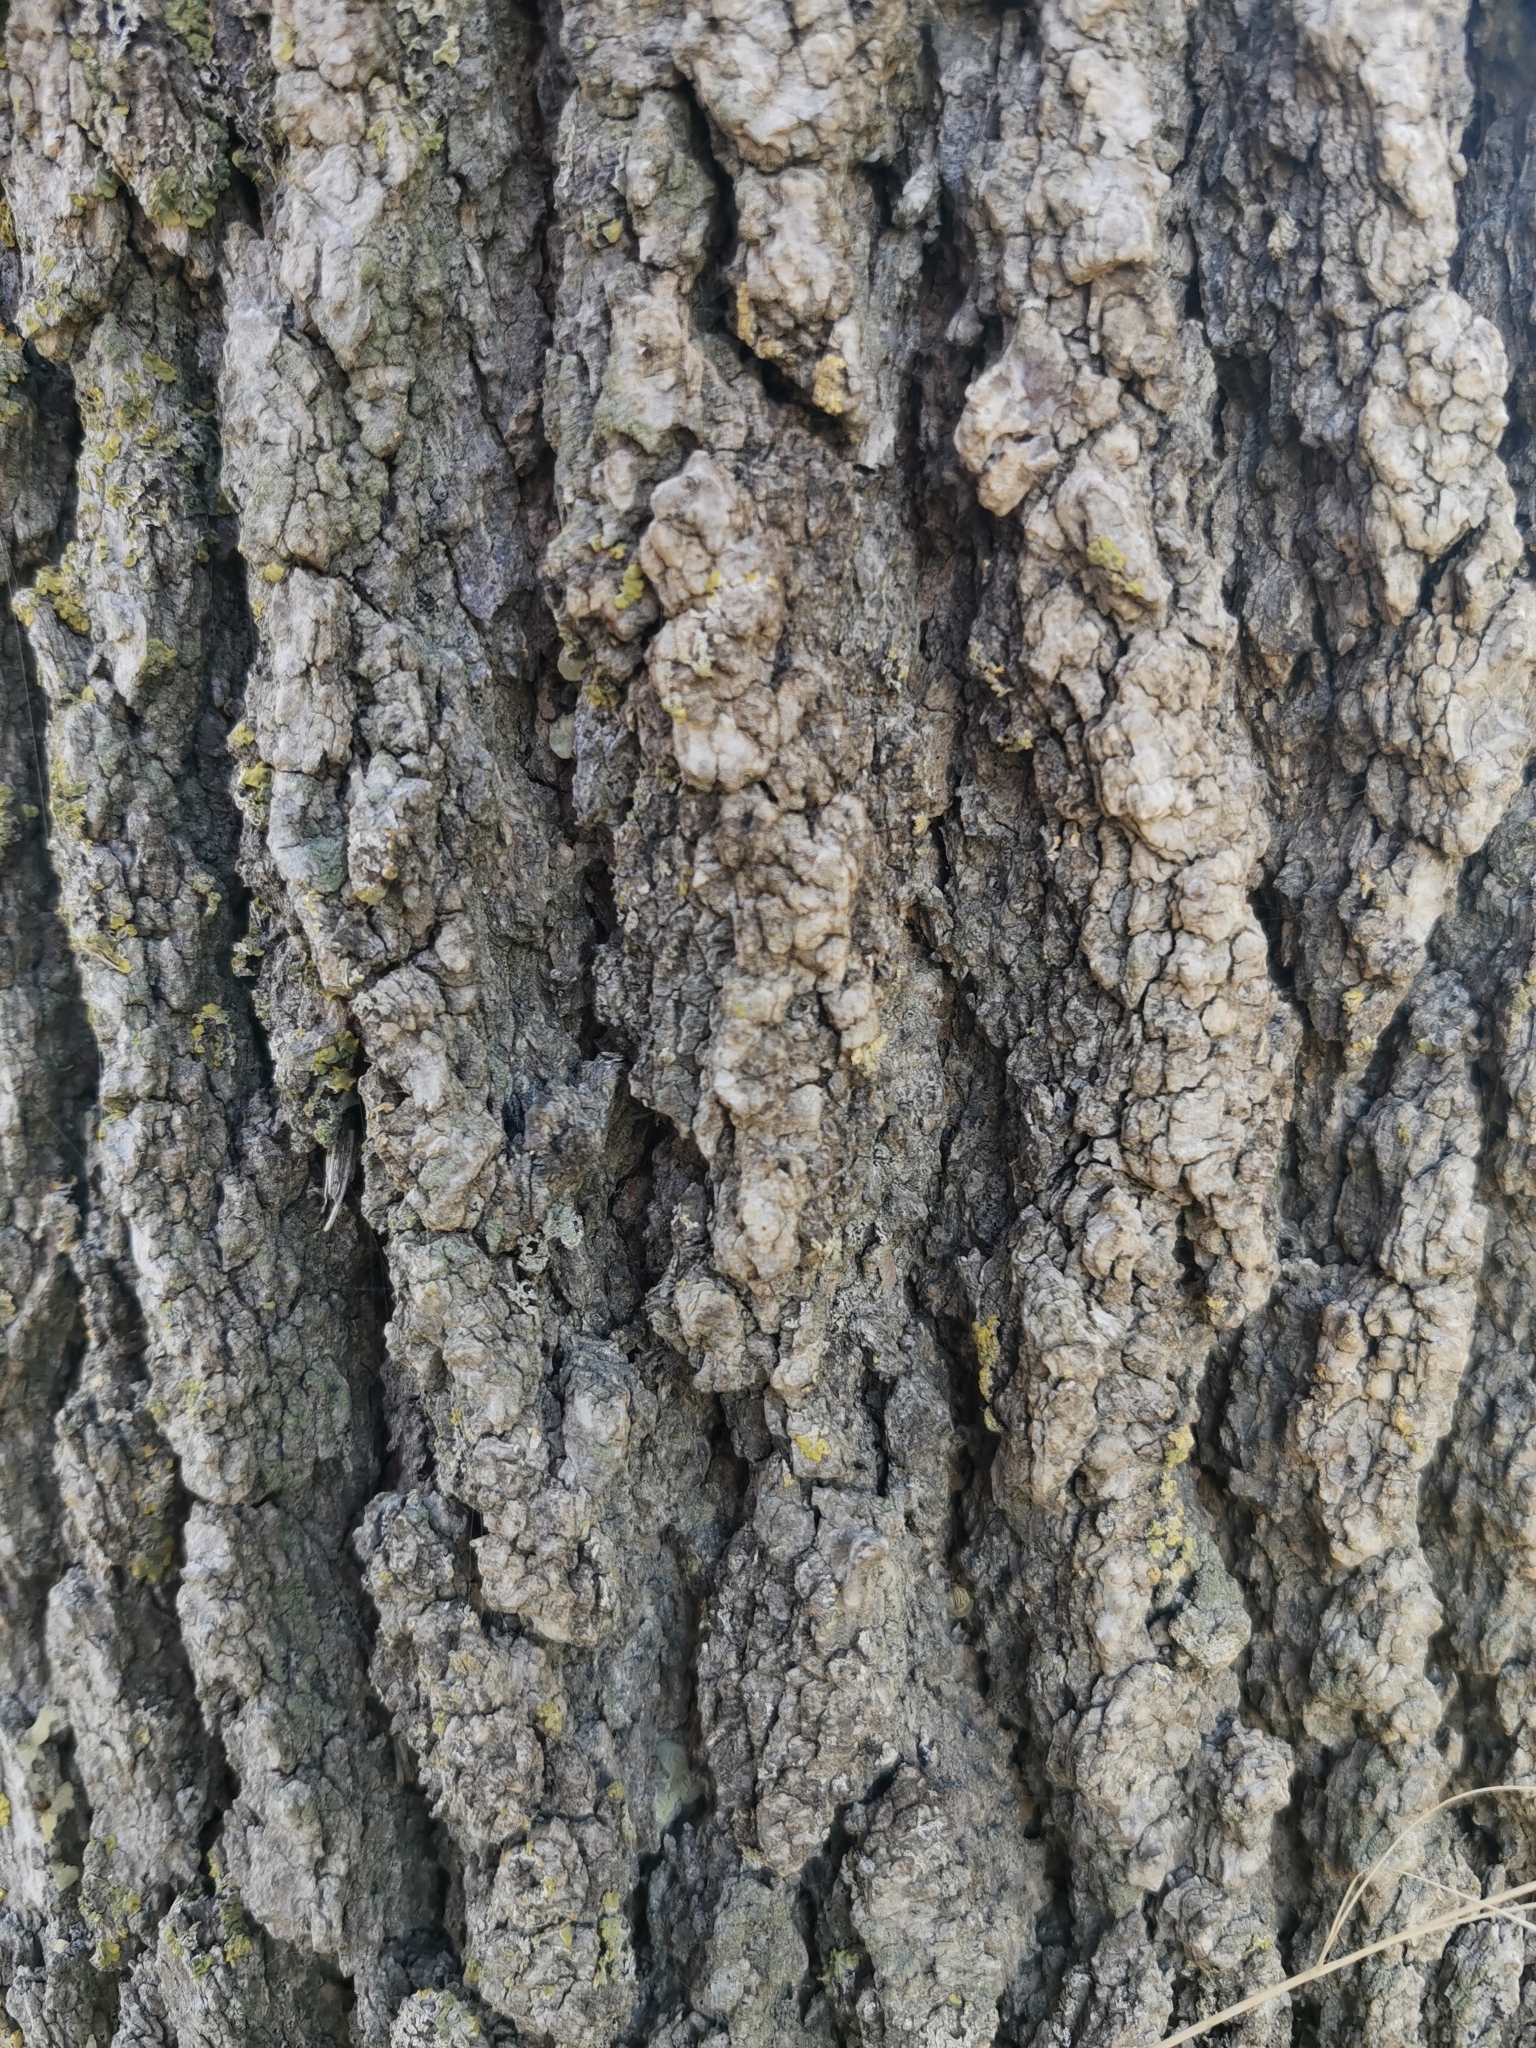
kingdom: Plantae
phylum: Tracheophyta
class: Magnoliopsida
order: Sapindales
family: Anacardiaceae
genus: Pistacia
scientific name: Pistacia atlantica
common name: Mt. atlas mastic tree
